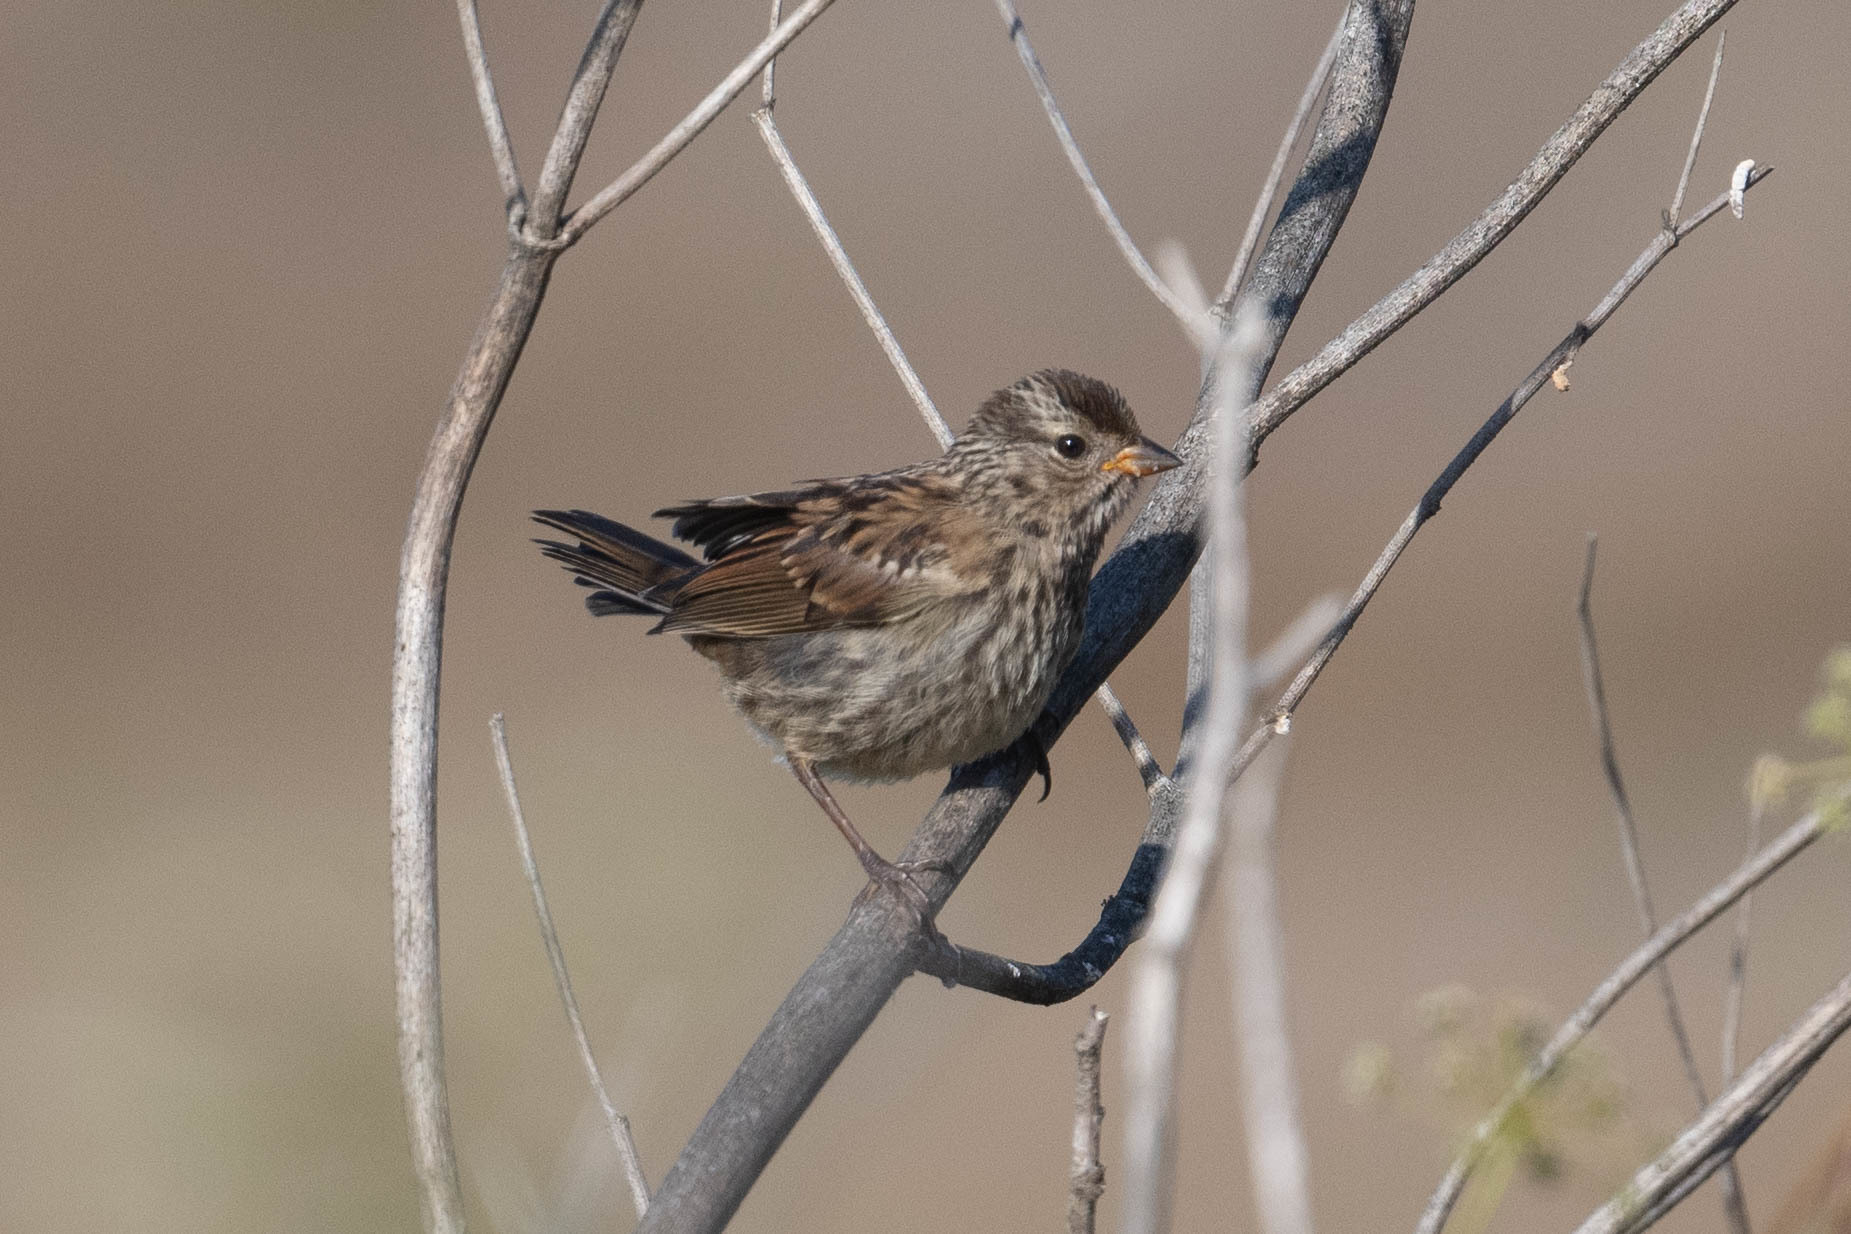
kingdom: Animalia
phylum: Chordata
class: Aves
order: Passeriformes
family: Passerellidae
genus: Zonotrichia
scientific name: Zonotrichia leucophrys
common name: White-crowned sparrow
